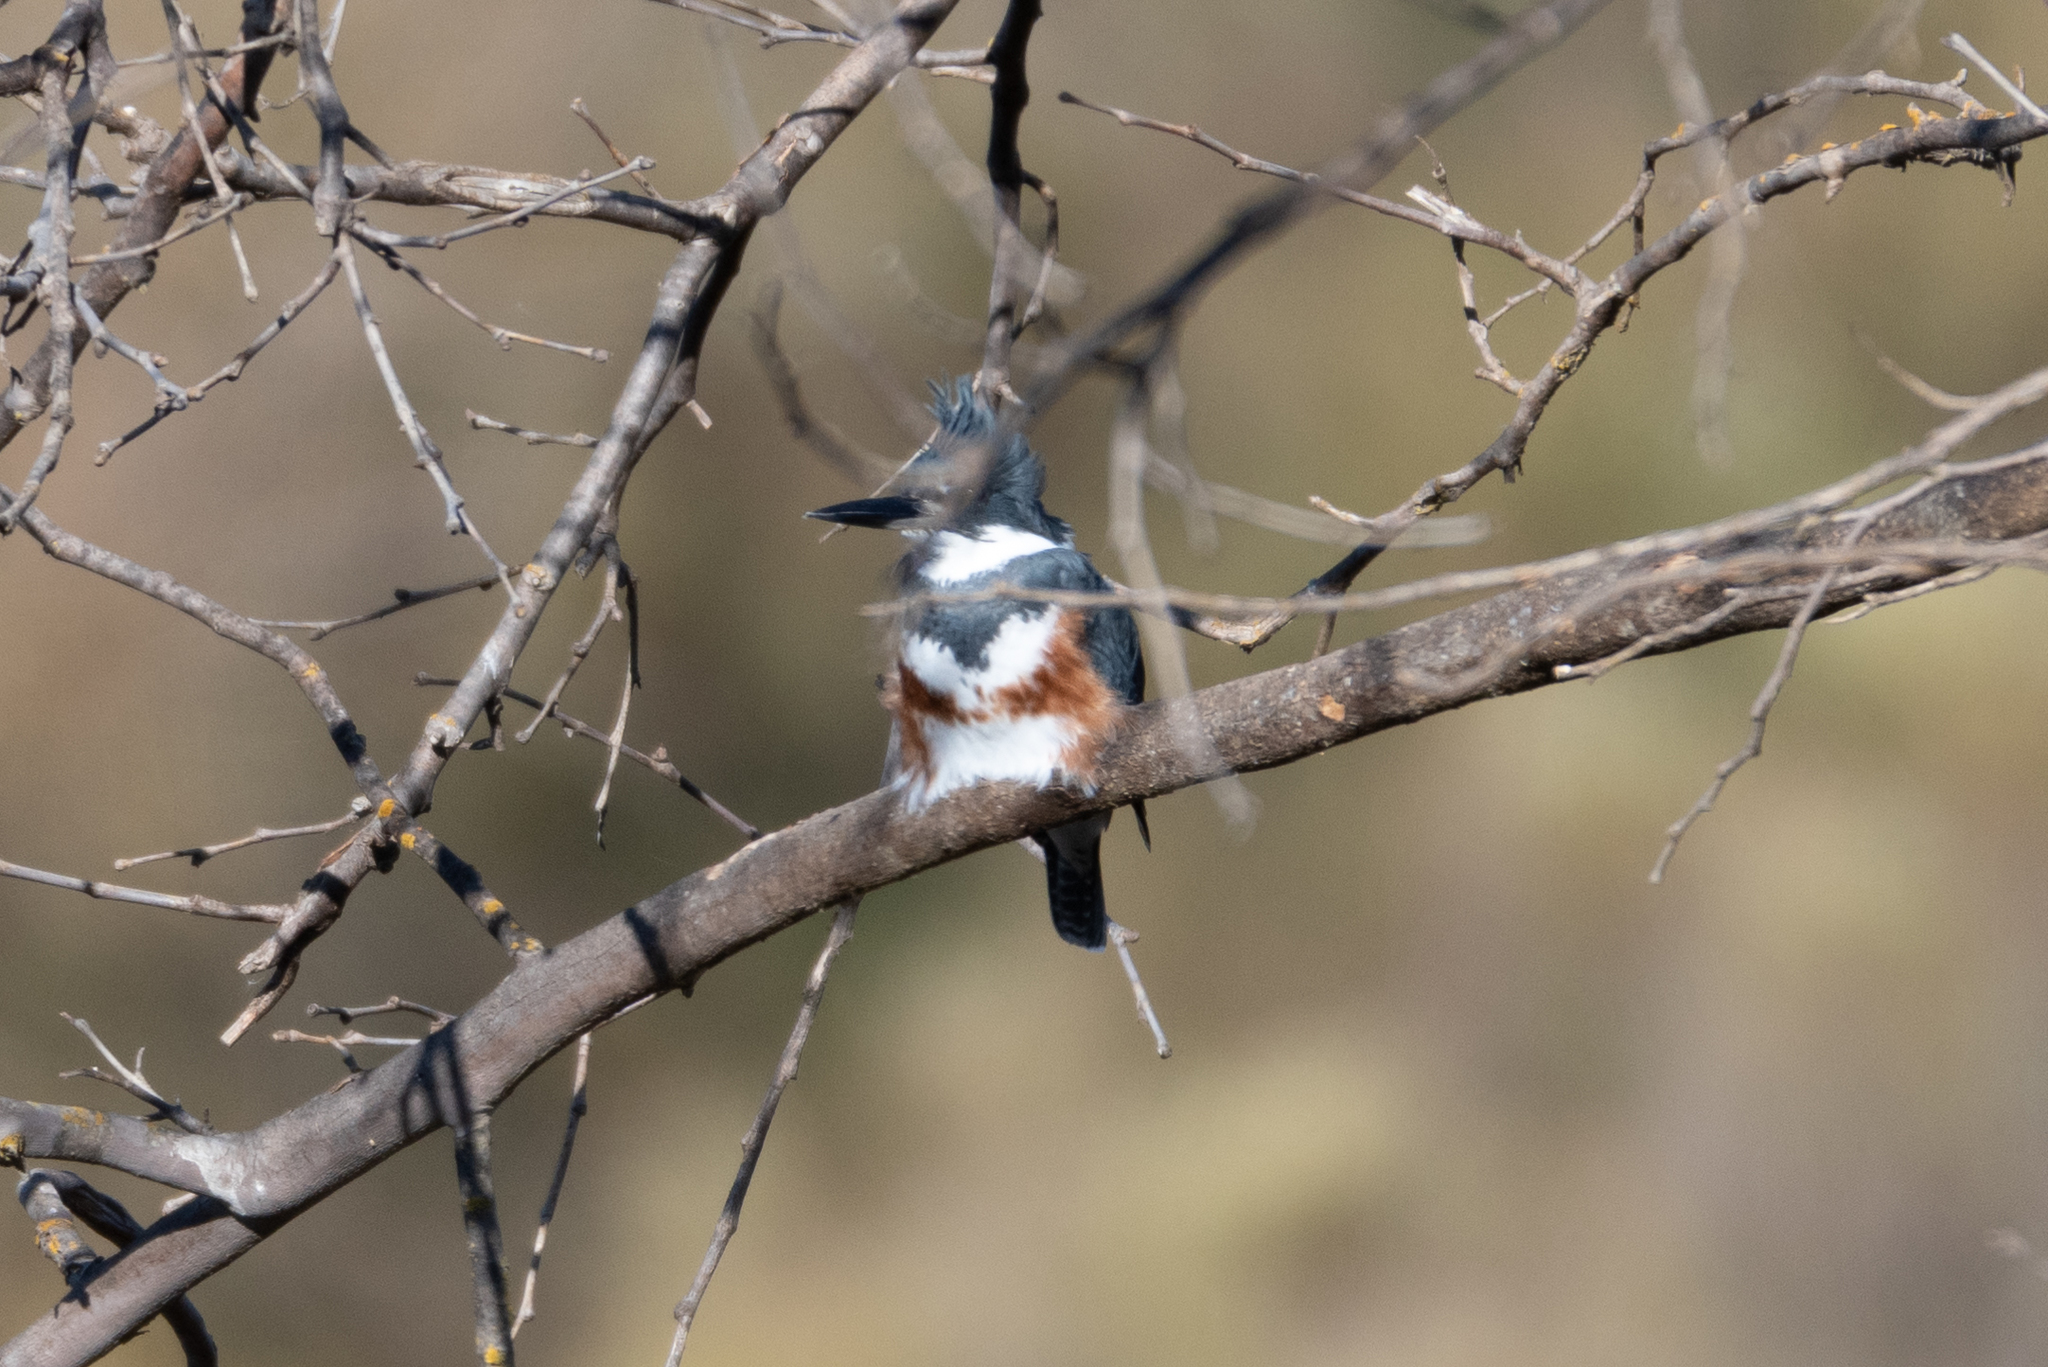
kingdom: Animalia
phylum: Chordata
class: Aves
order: Coraciiformes
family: Alcedinidae
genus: Megaceryle
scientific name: Megaceryle alcyon
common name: Belted kingfisher
